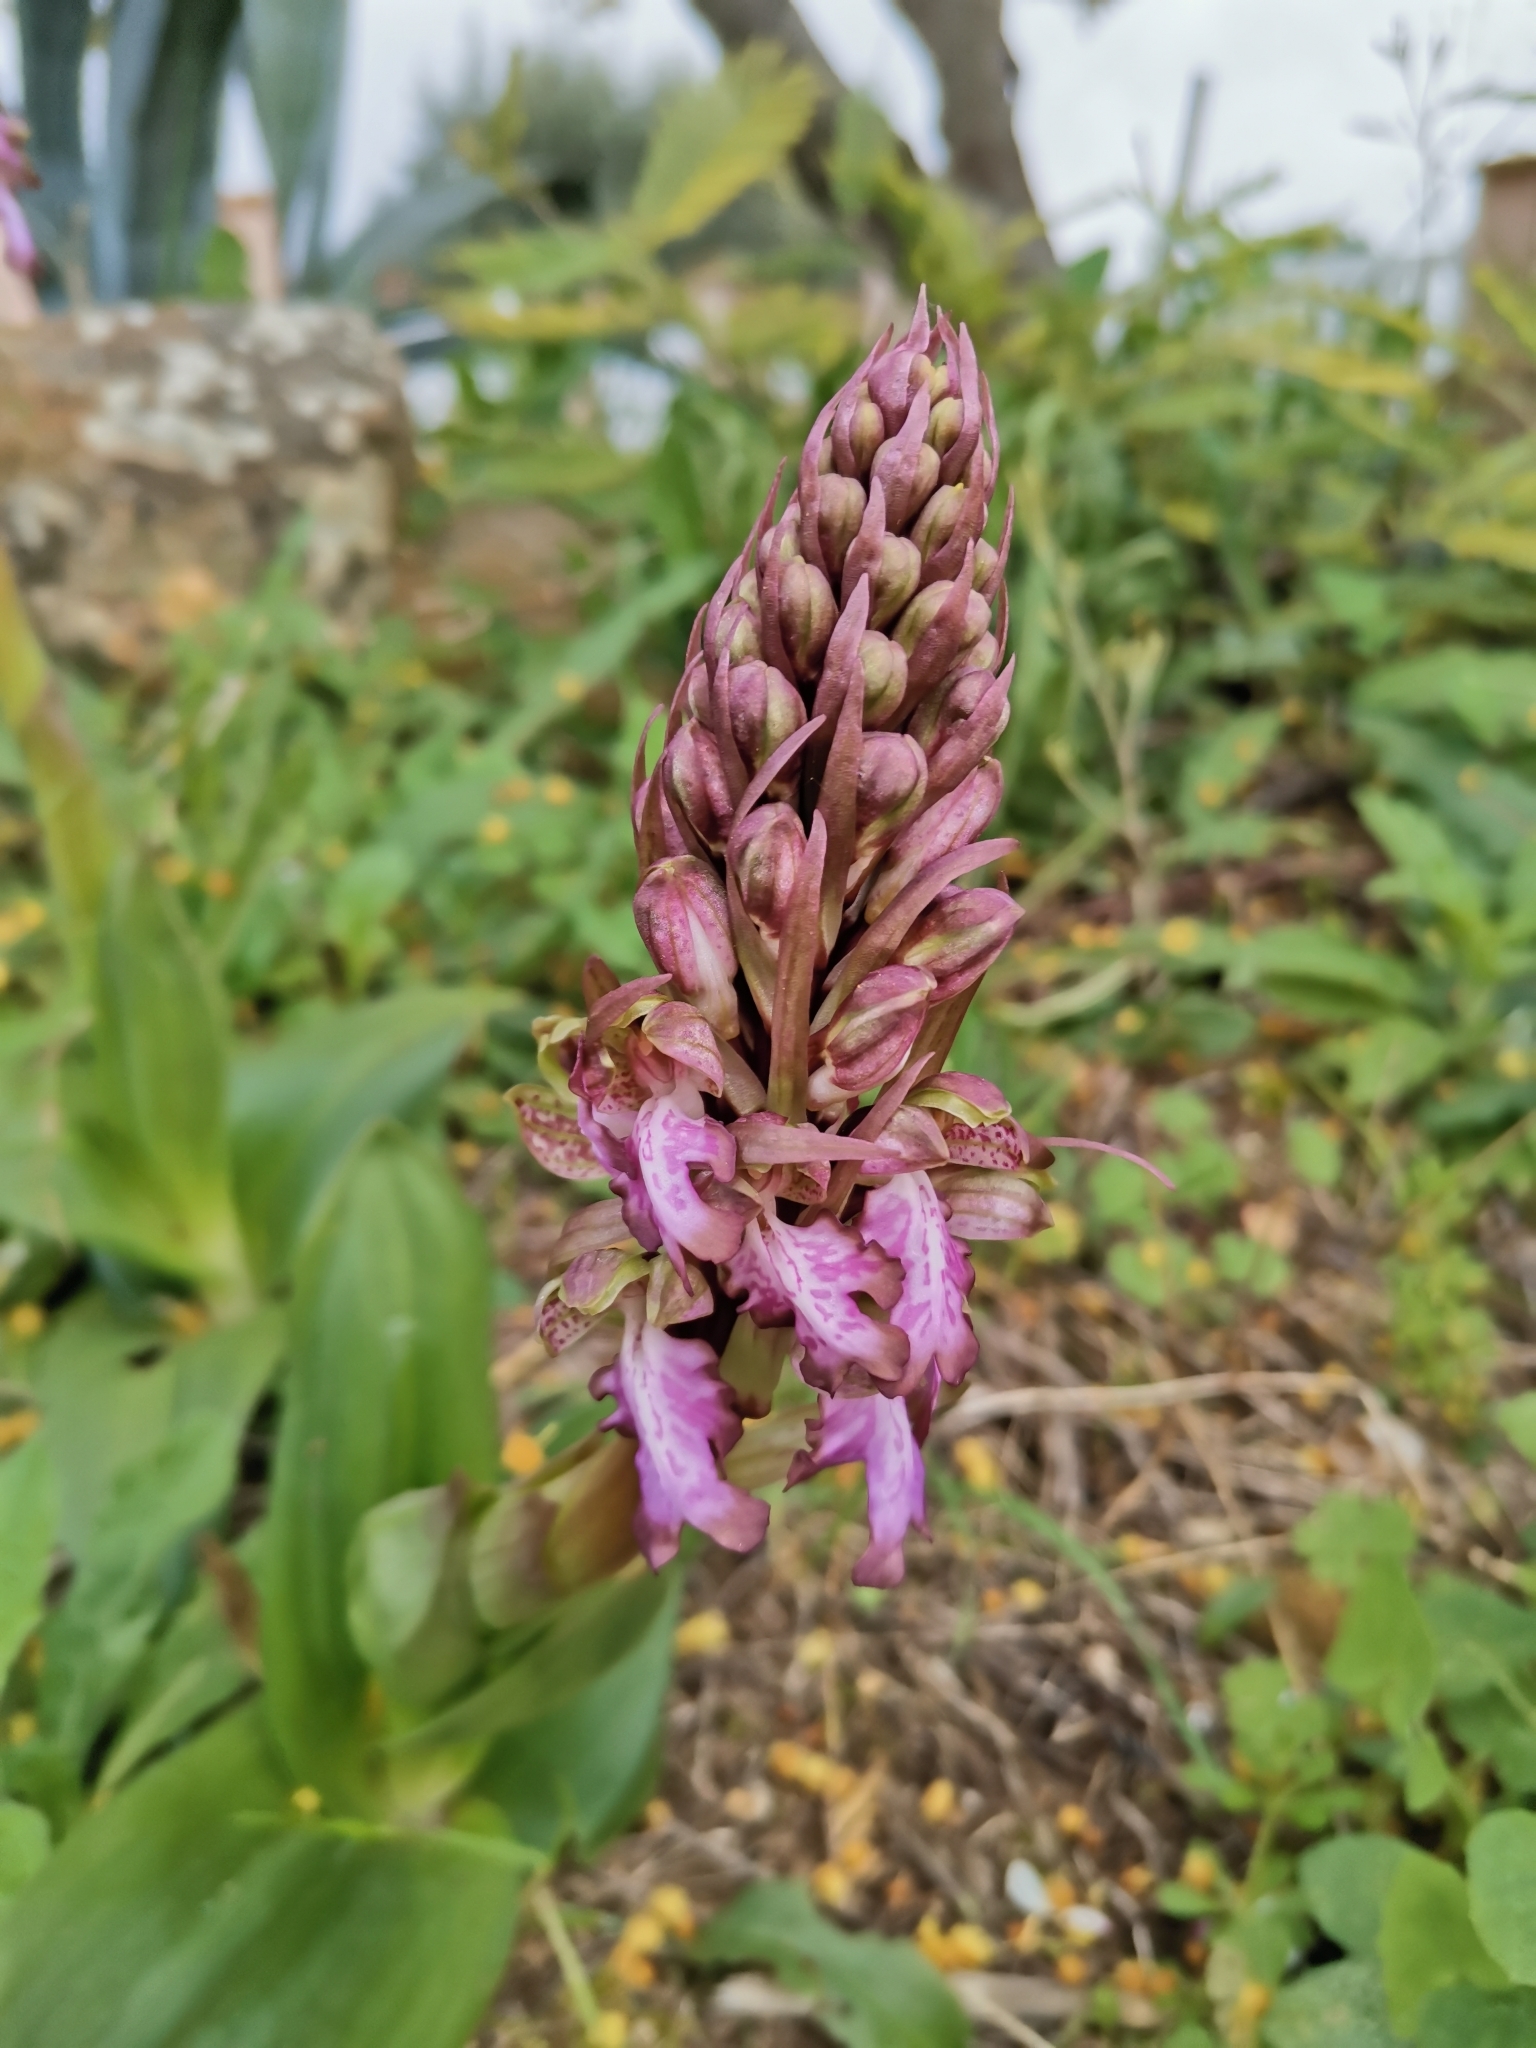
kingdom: Plantae
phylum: Tracheophyta
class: Liliopsida
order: Asparagales
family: Orchidaceae
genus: Himantoglossum
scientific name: Himantoglossum robertianum
